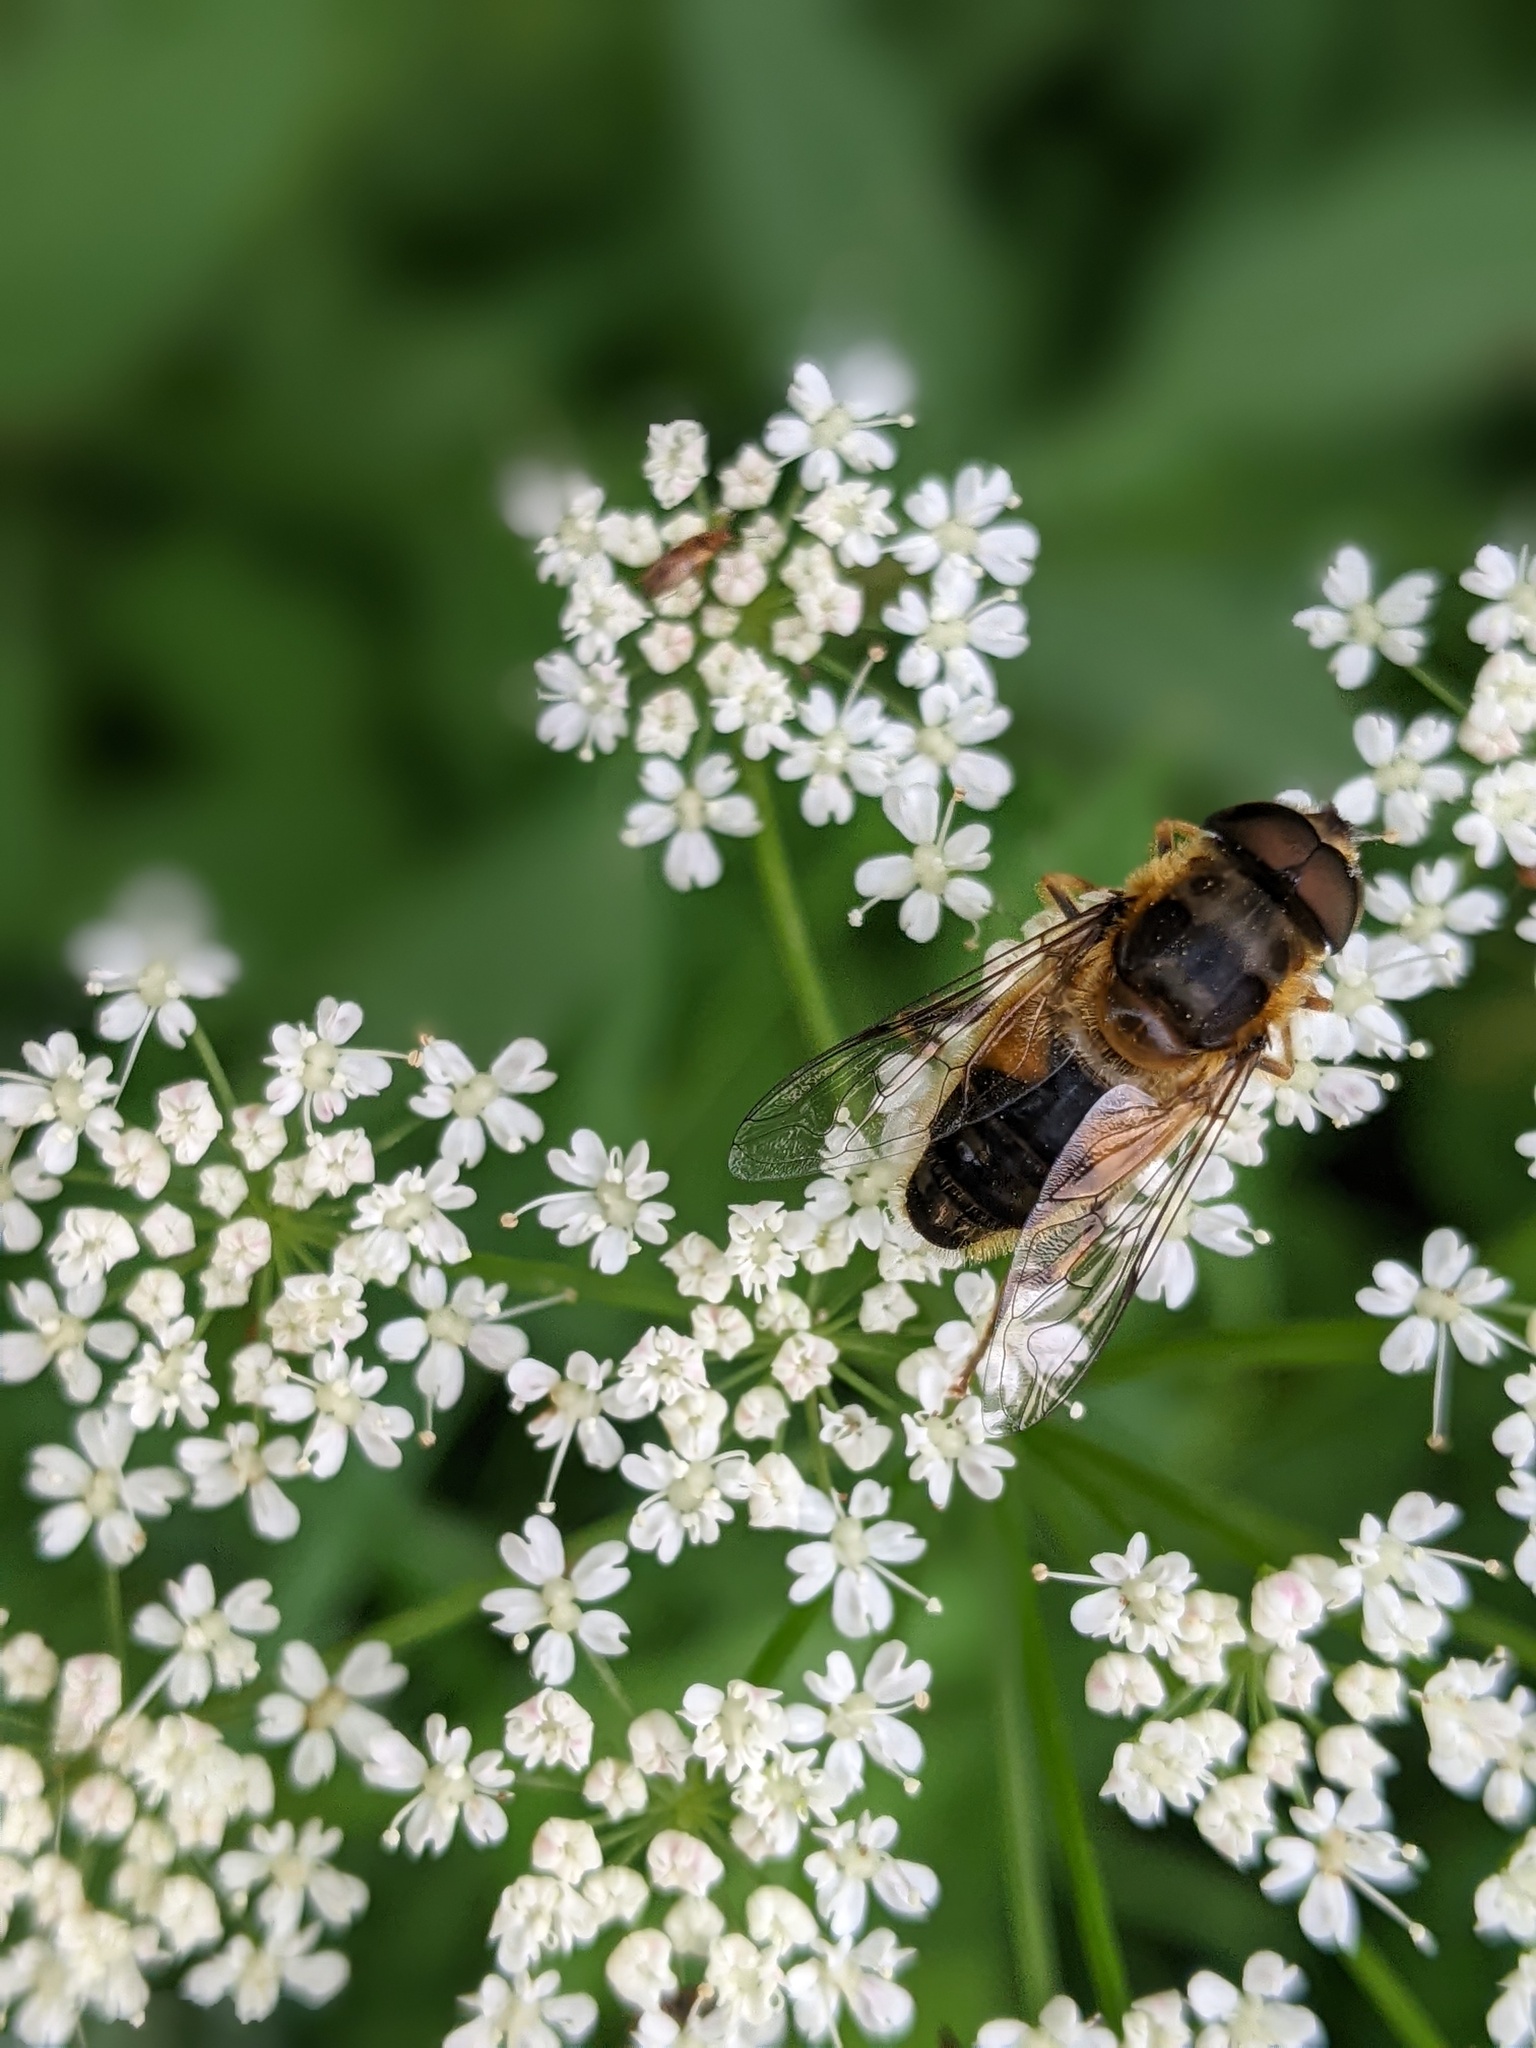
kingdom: Animalia
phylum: Arthropoda
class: Insecta
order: Diptera
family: Syrphidae
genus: Eristalis
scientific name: Eristalis pertinax
